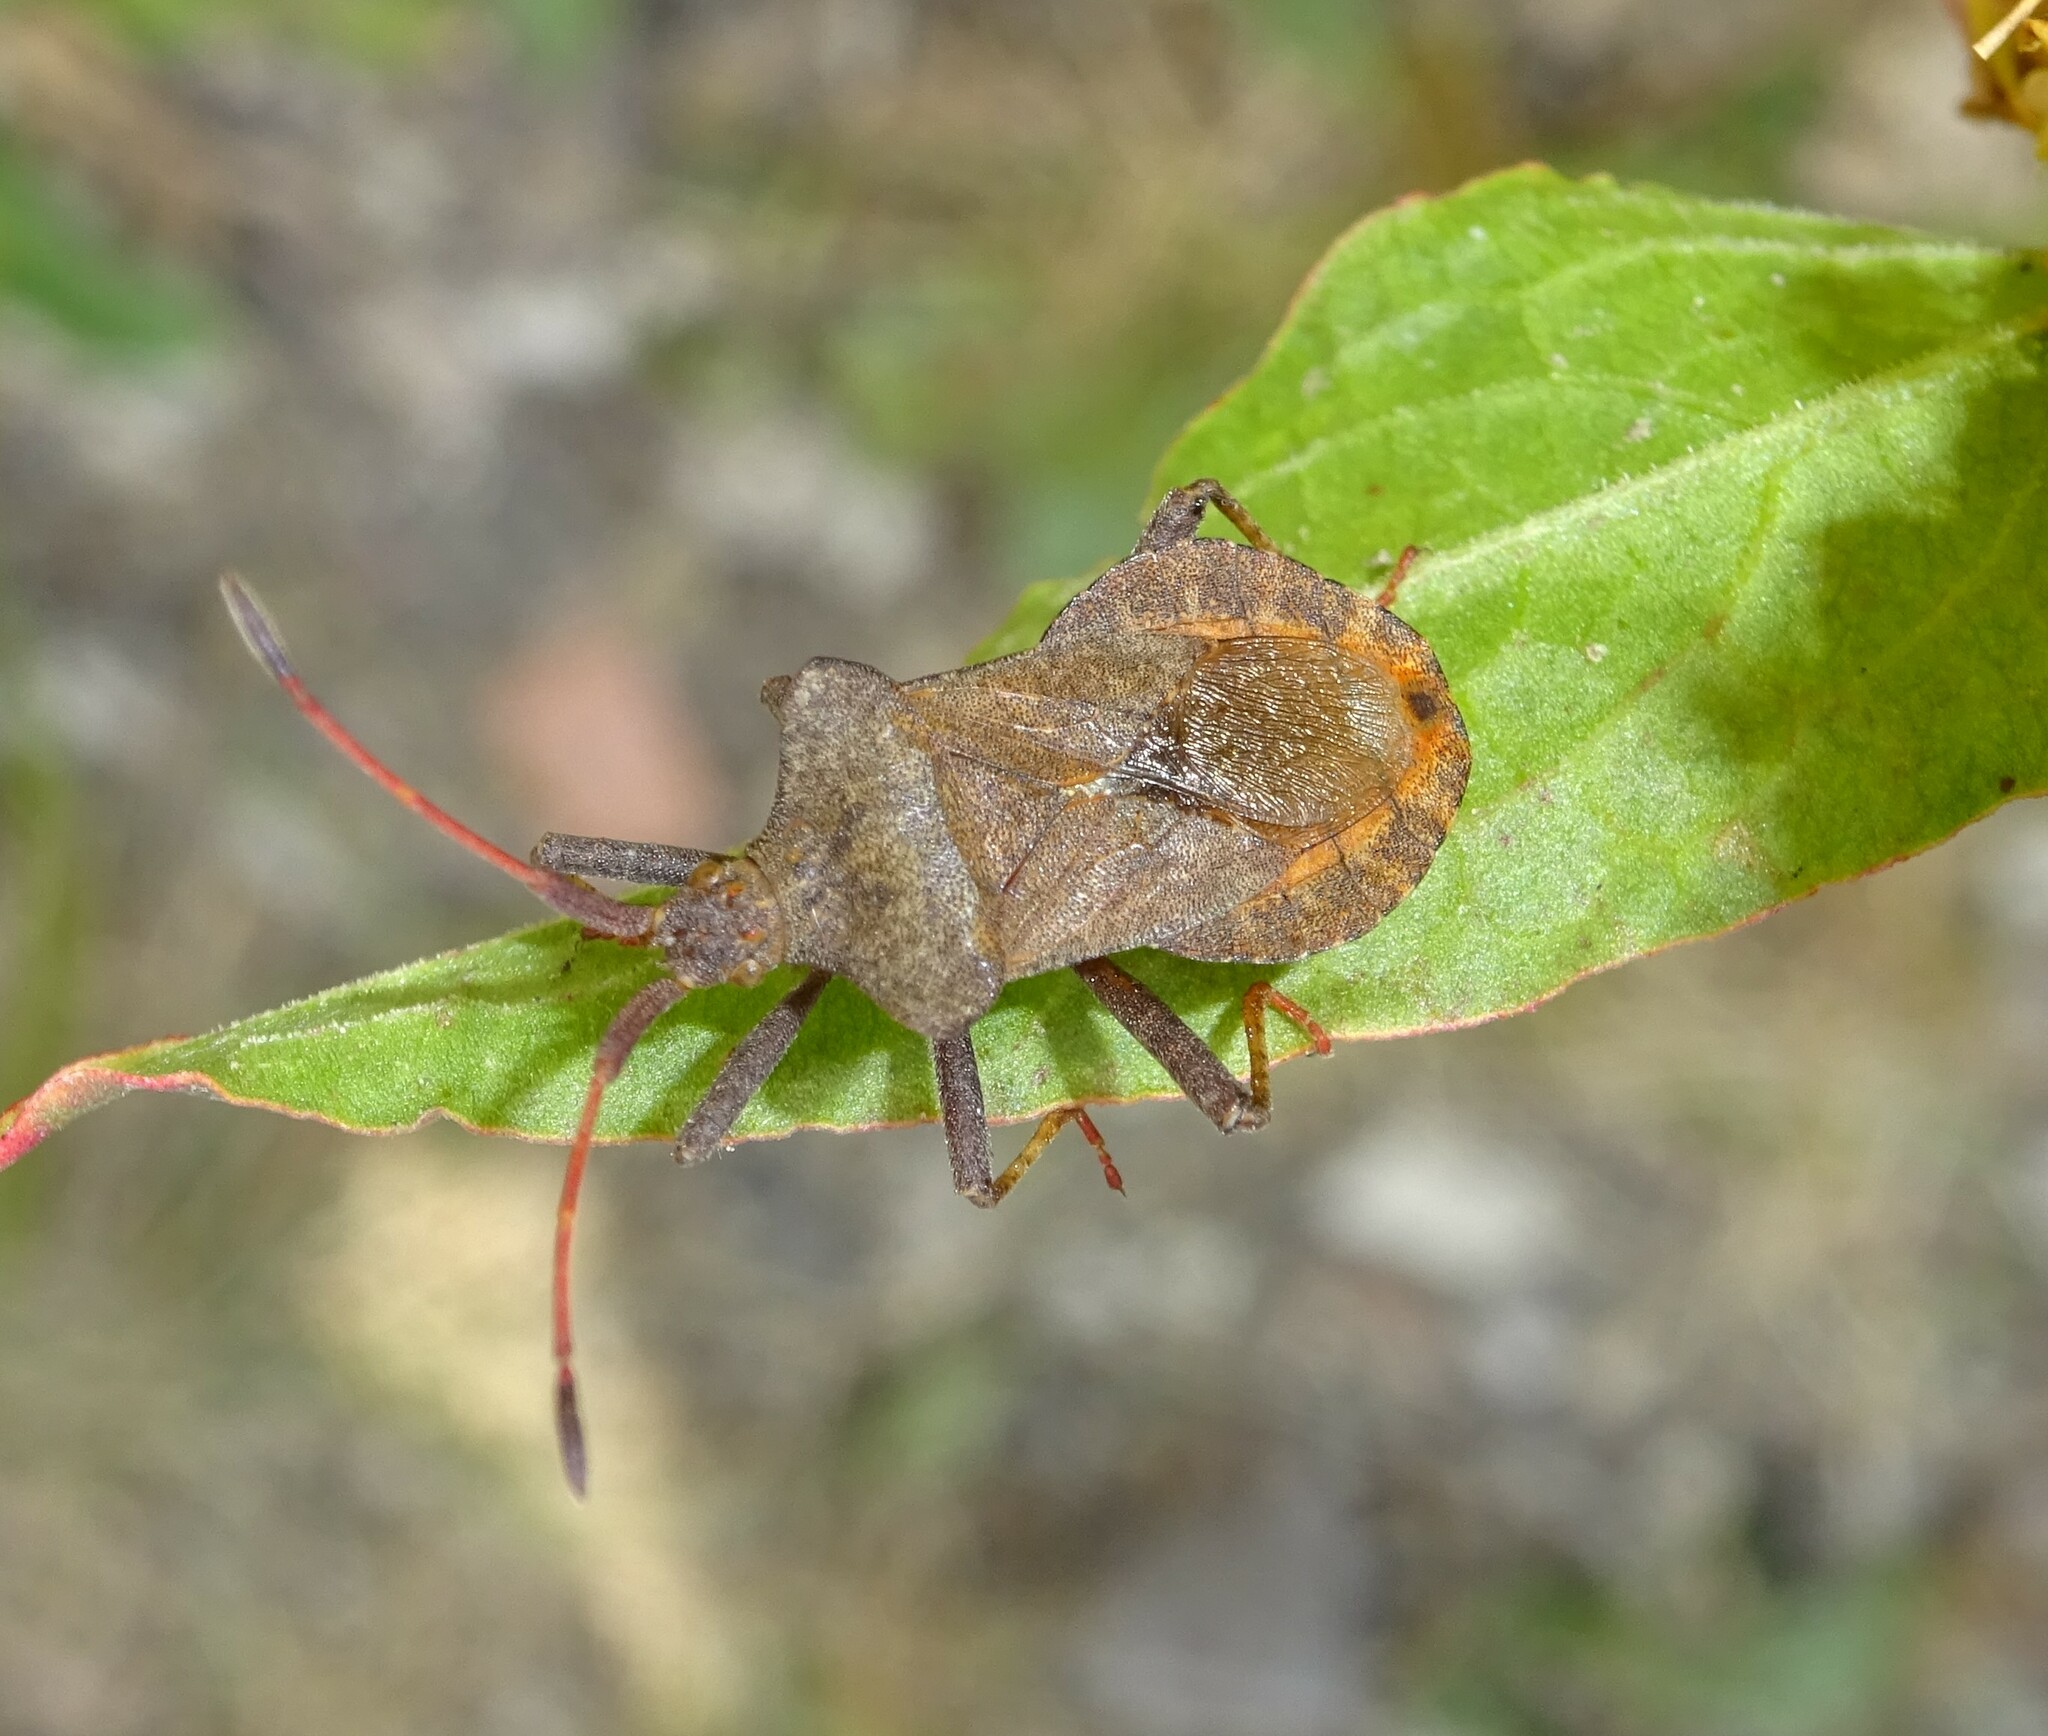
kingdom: Animalia
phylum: Arthropoda
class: Insecta
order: Hemiptera
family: Coreidae
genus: Coreus
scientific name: Coreus marginatus
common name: Dock bug
